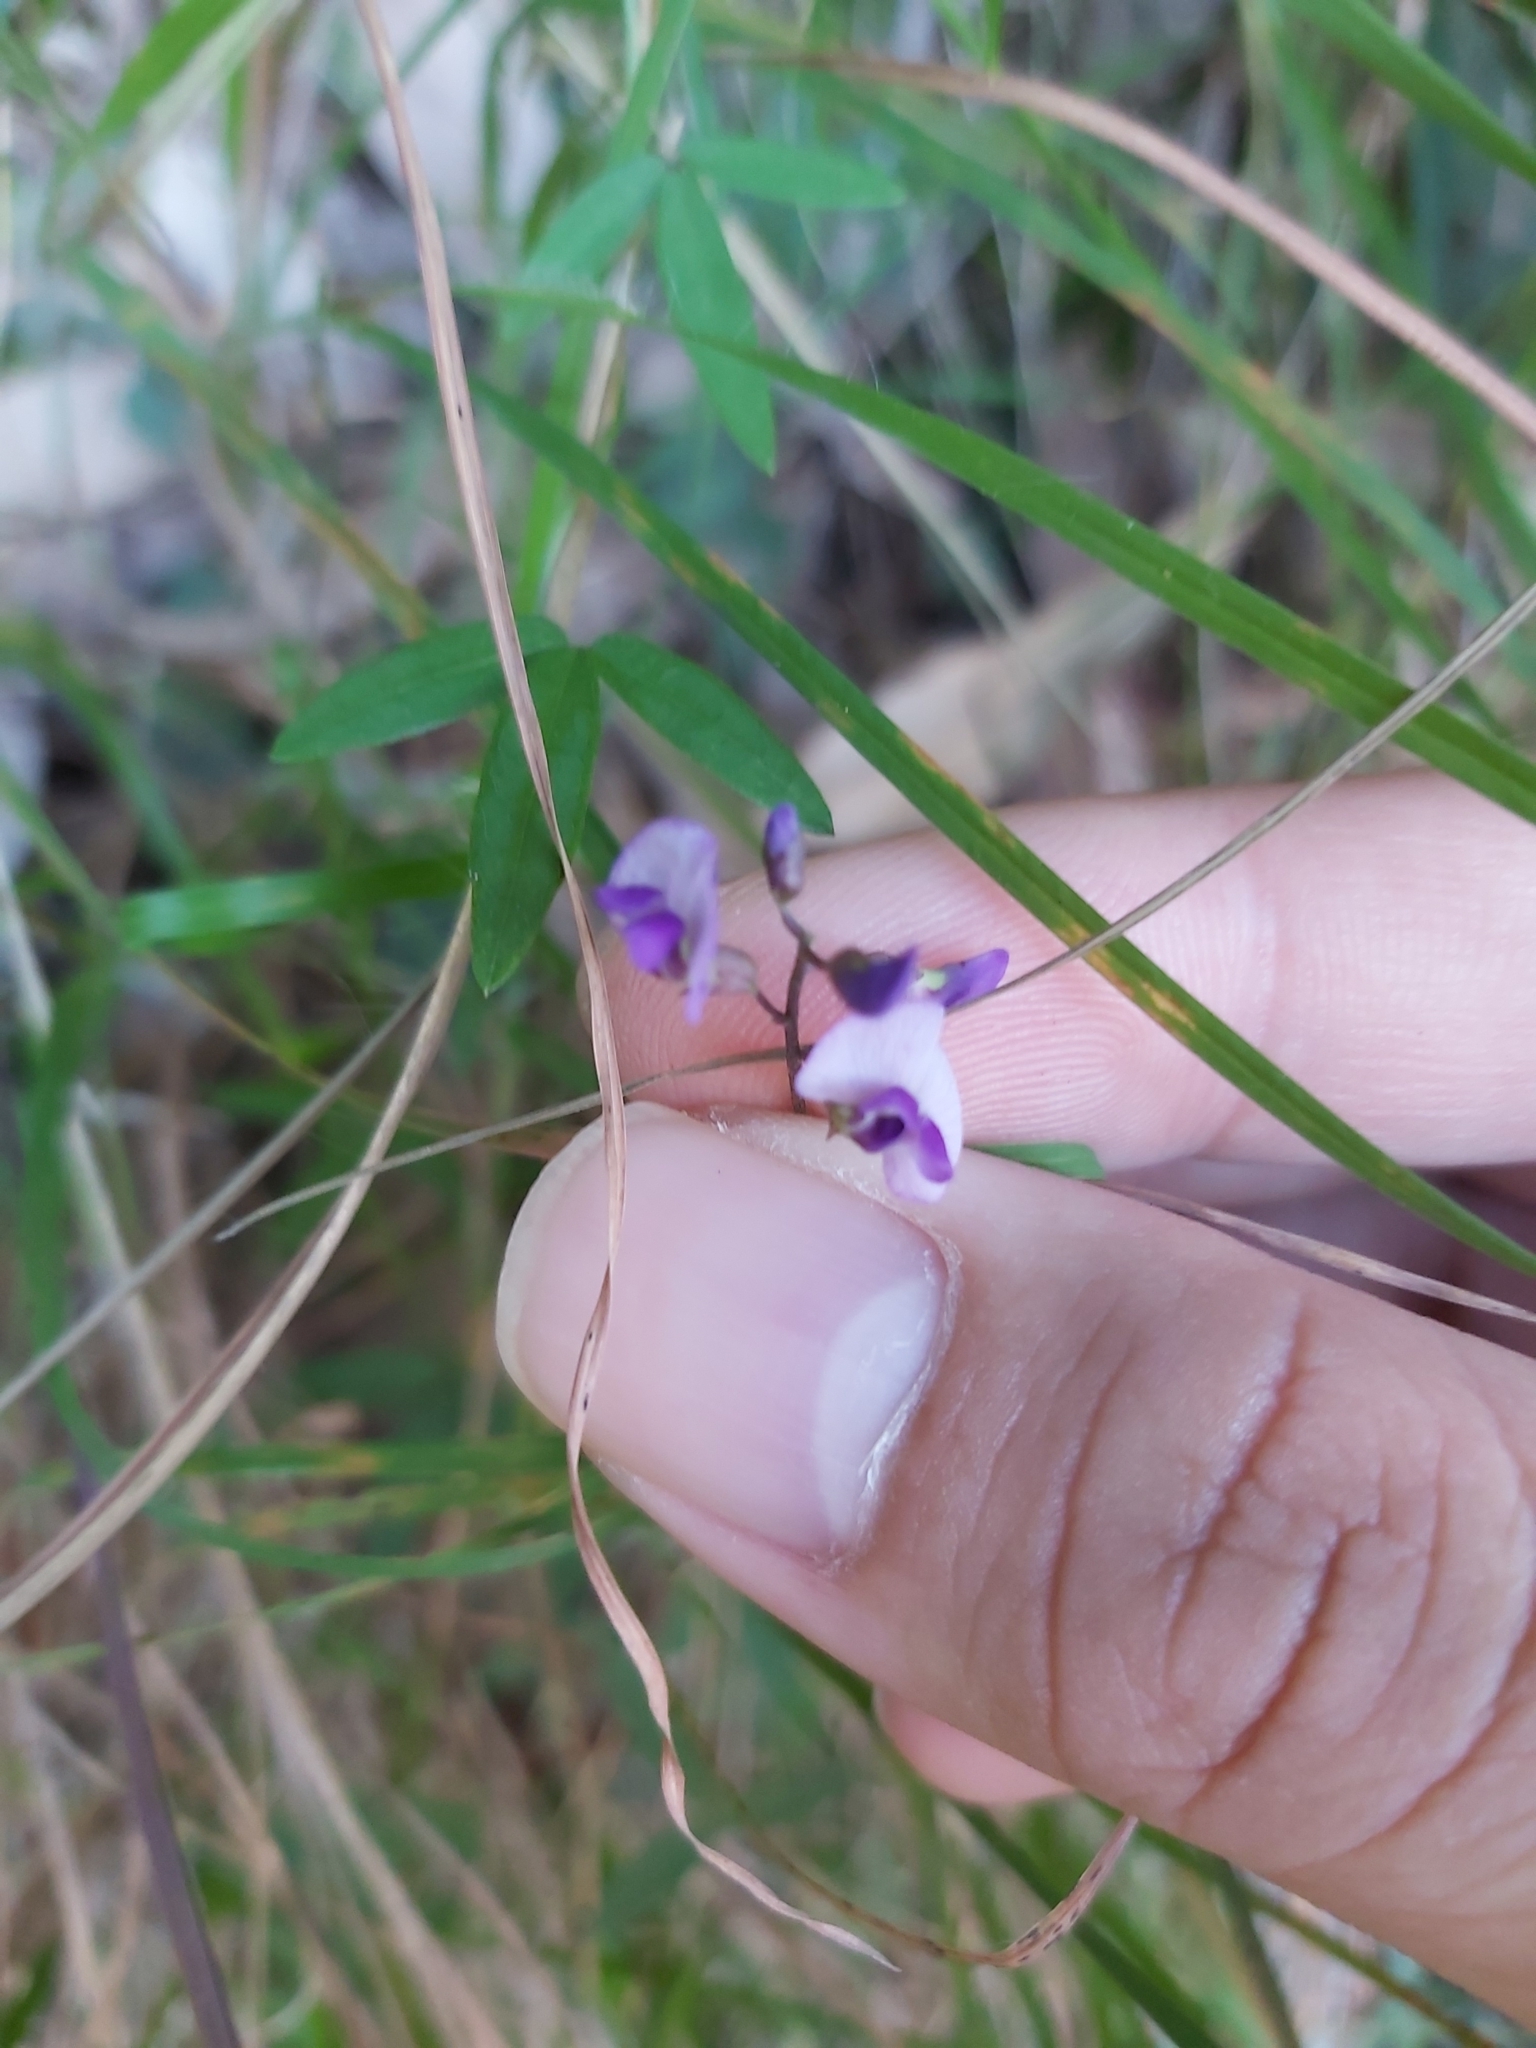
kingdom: Plantae
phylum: Tracheophyta
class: Magnoliopsida
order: Fabales
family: Fabaceae
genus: Glycine
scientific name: Glycine clandestina
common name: Twining glycine
